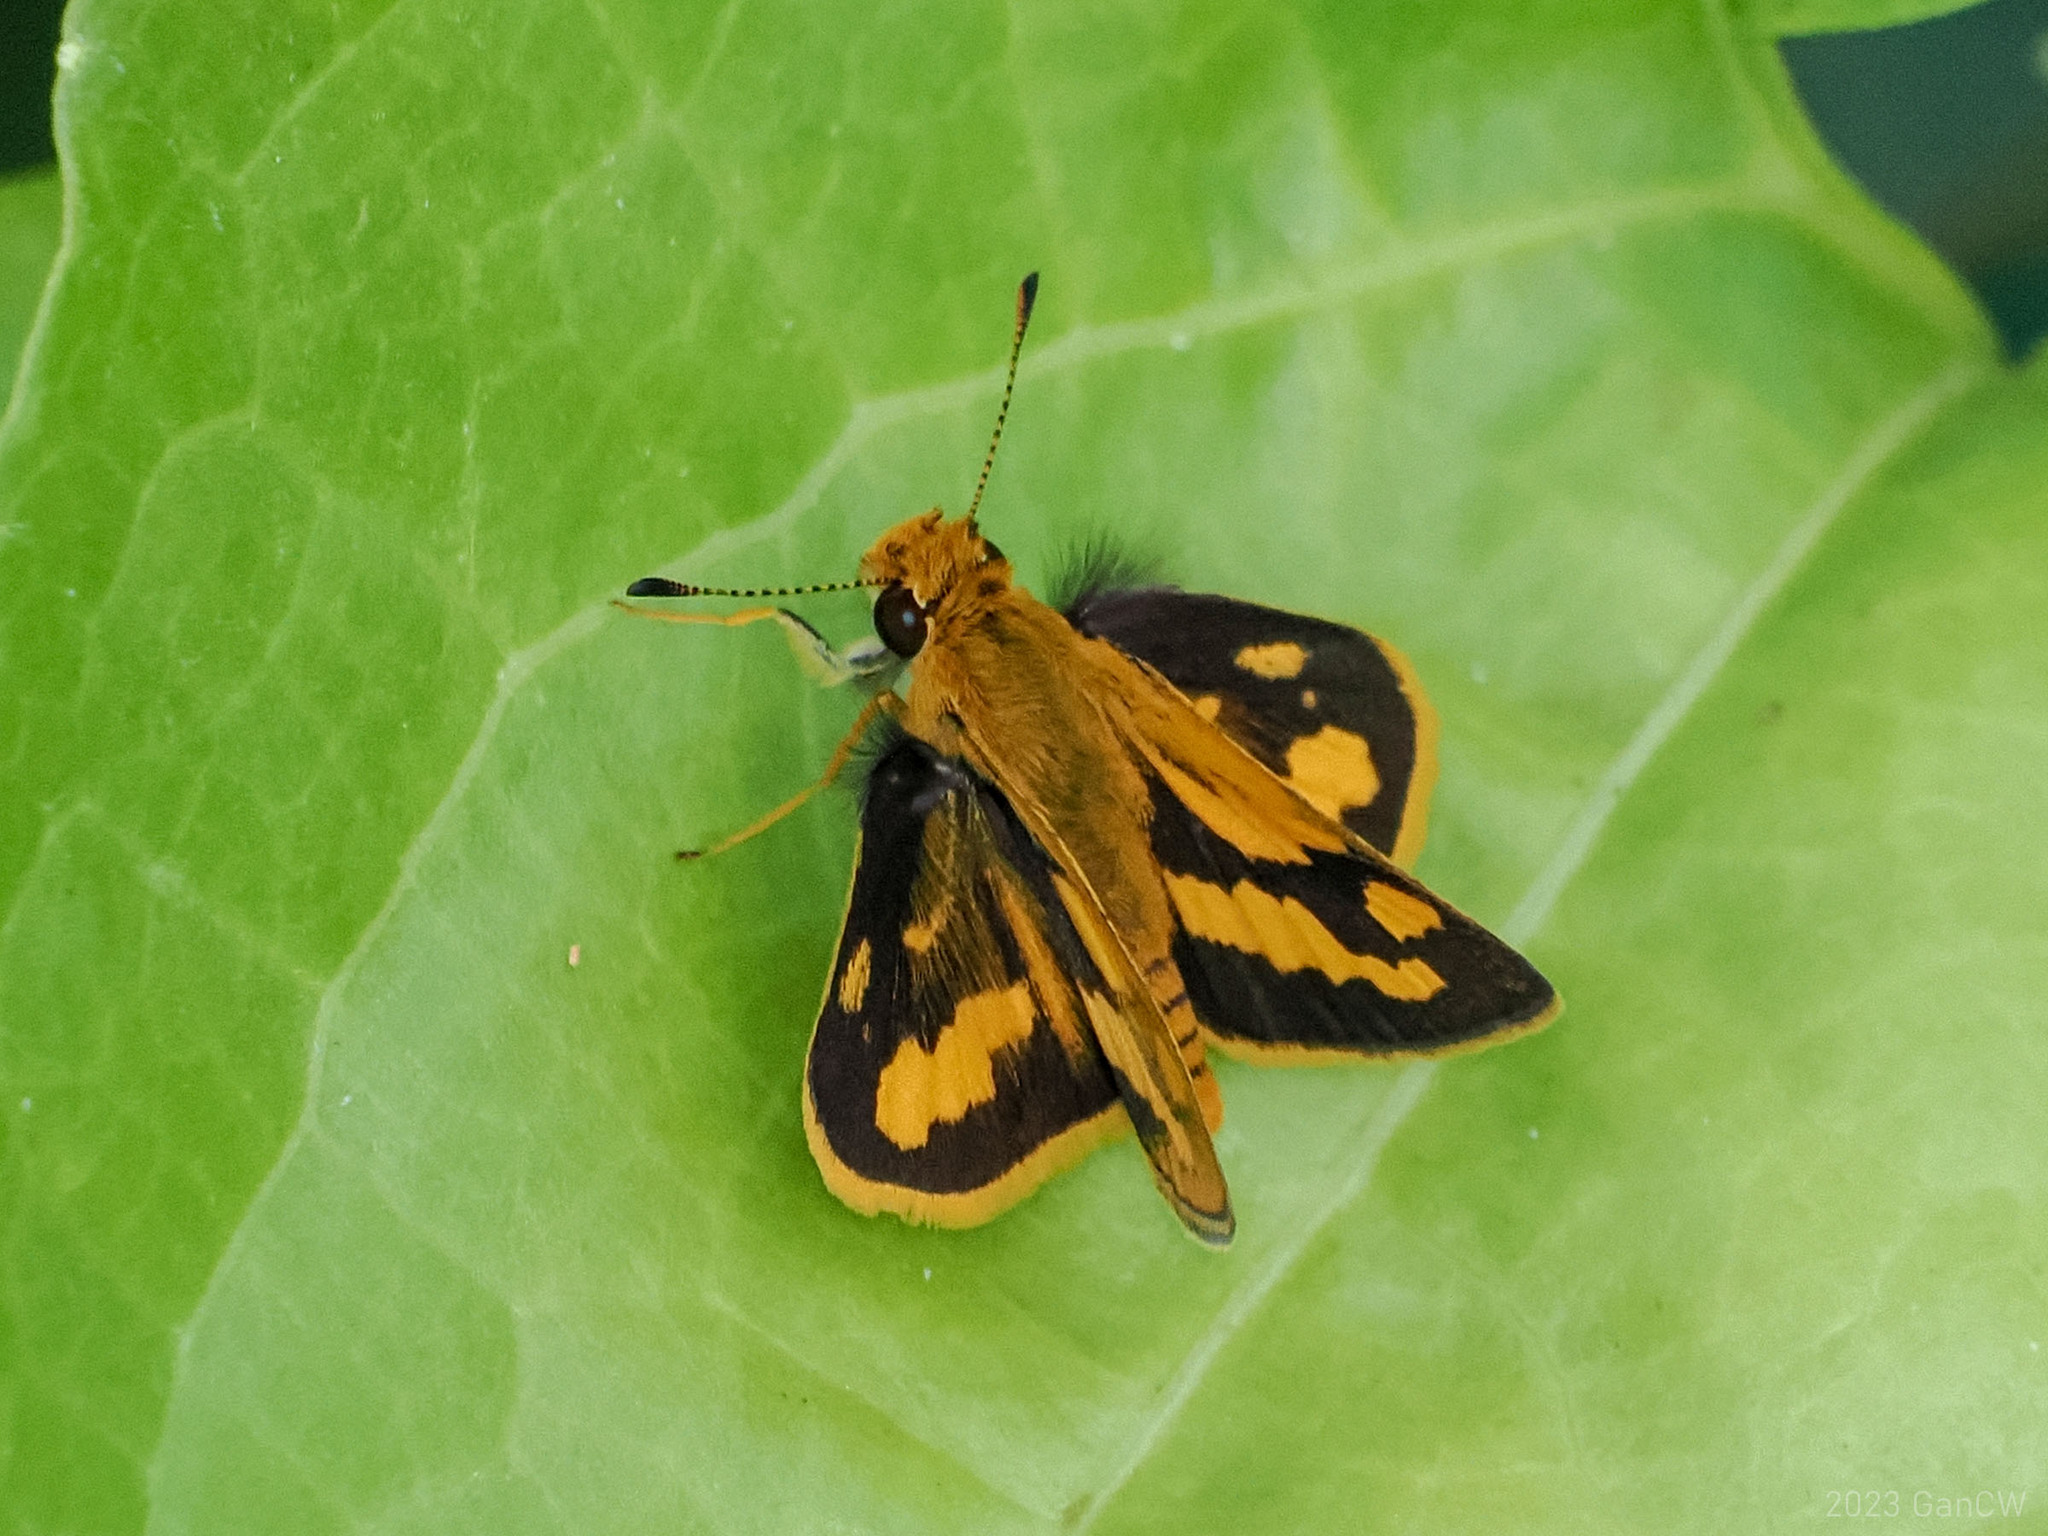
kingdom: Animalia
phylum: Arthropoda
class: Insecta
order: Lepidoptera
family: Hesperiidae
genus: Taractrocera
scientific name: Taractrocera
